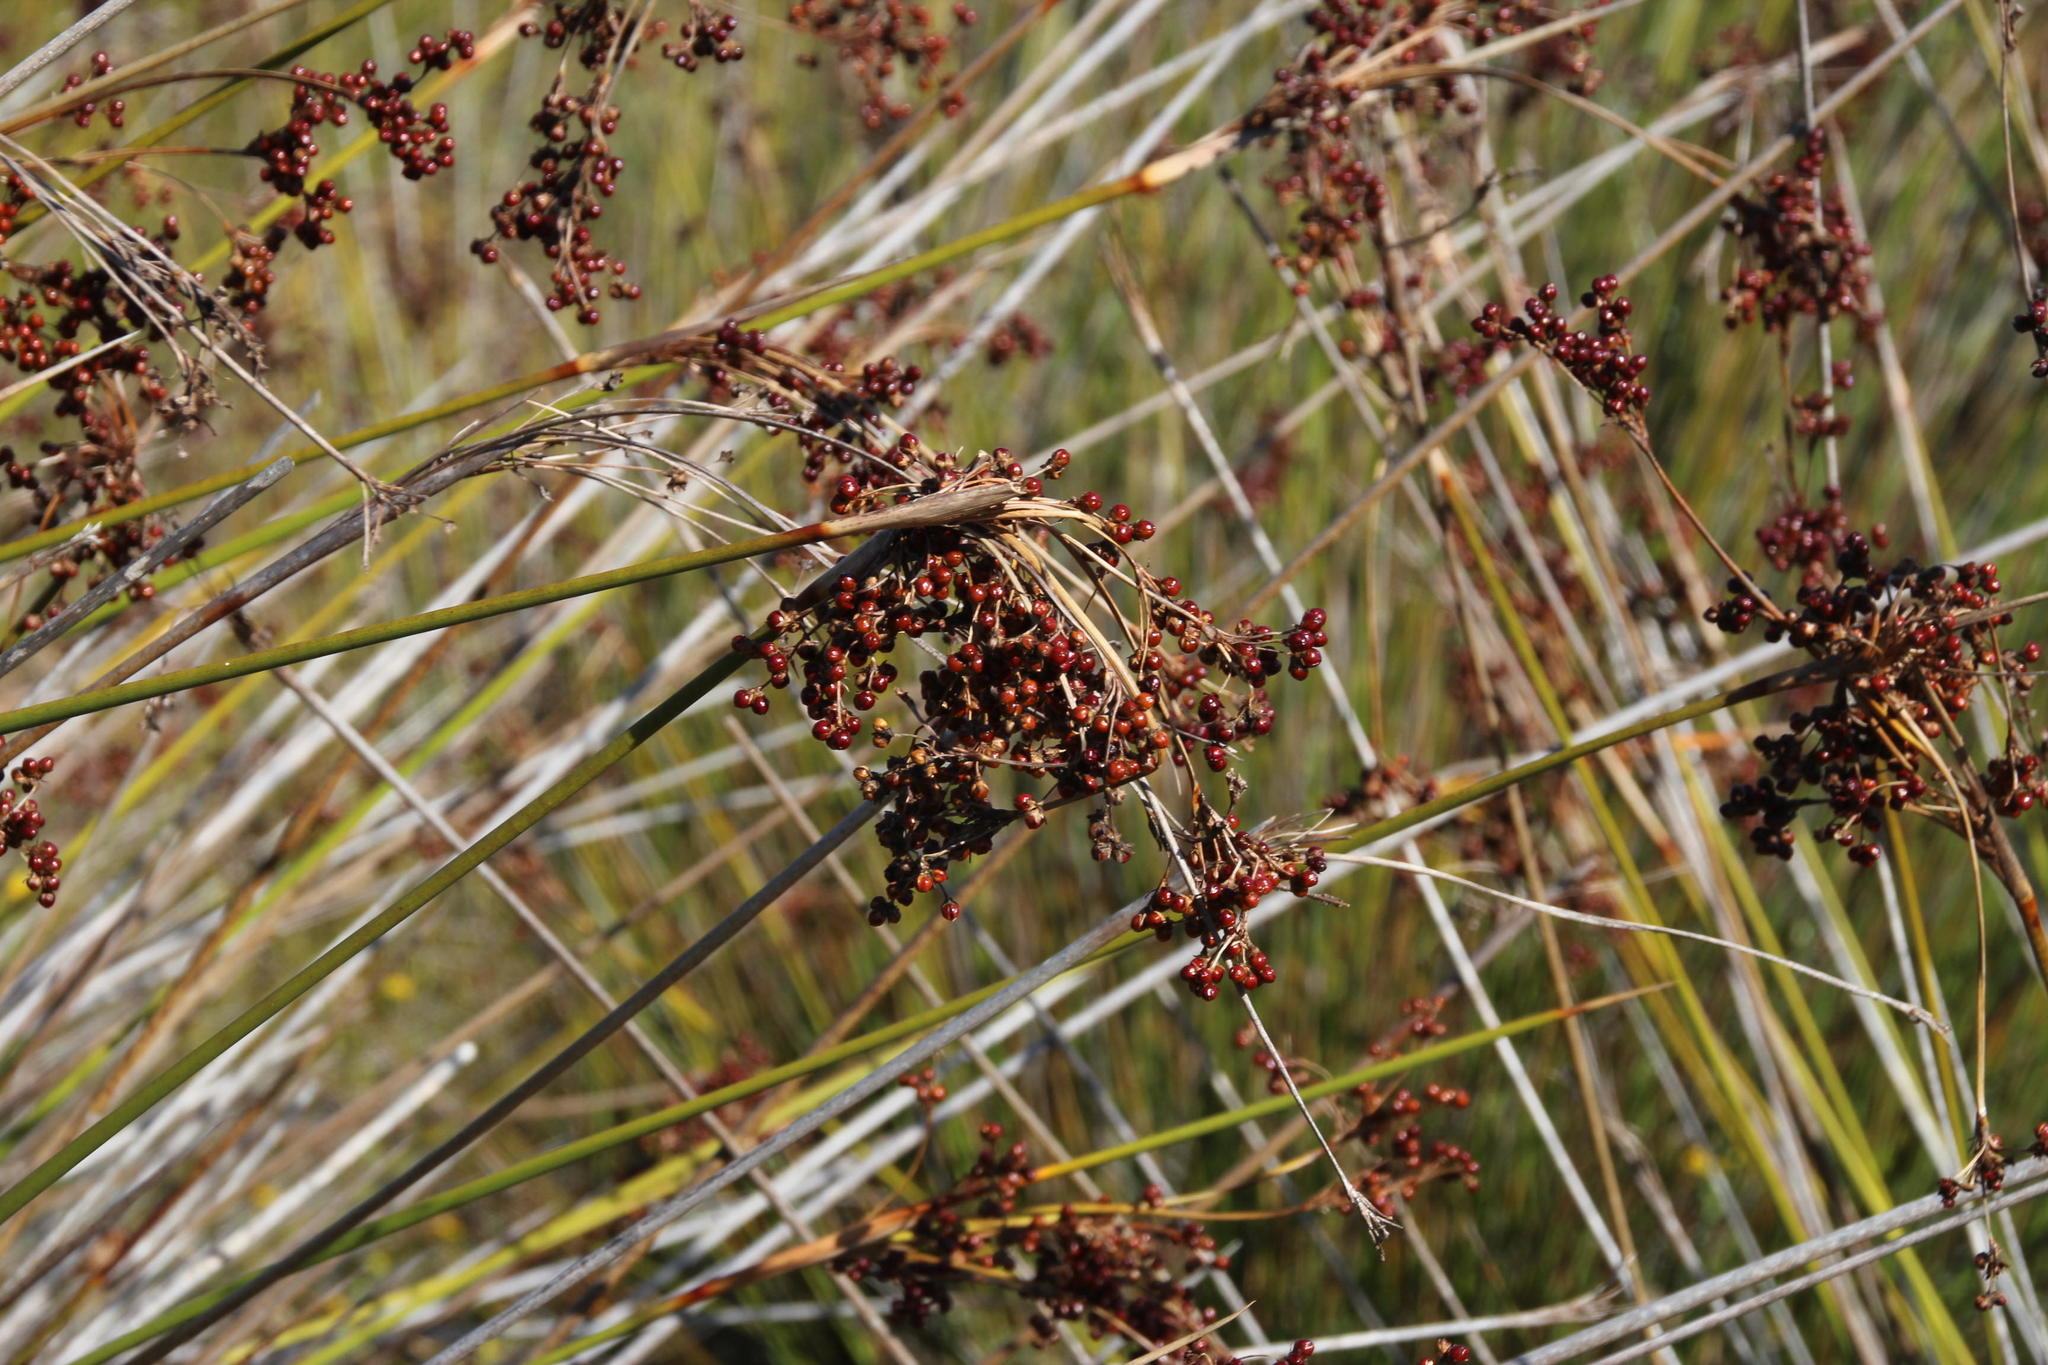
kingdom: Plantae
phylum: Tracheophyta
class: Liliopsida
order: Poales
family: Juncaceae
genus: Juncus
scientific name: Juncus acutus
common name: Sharp rush
